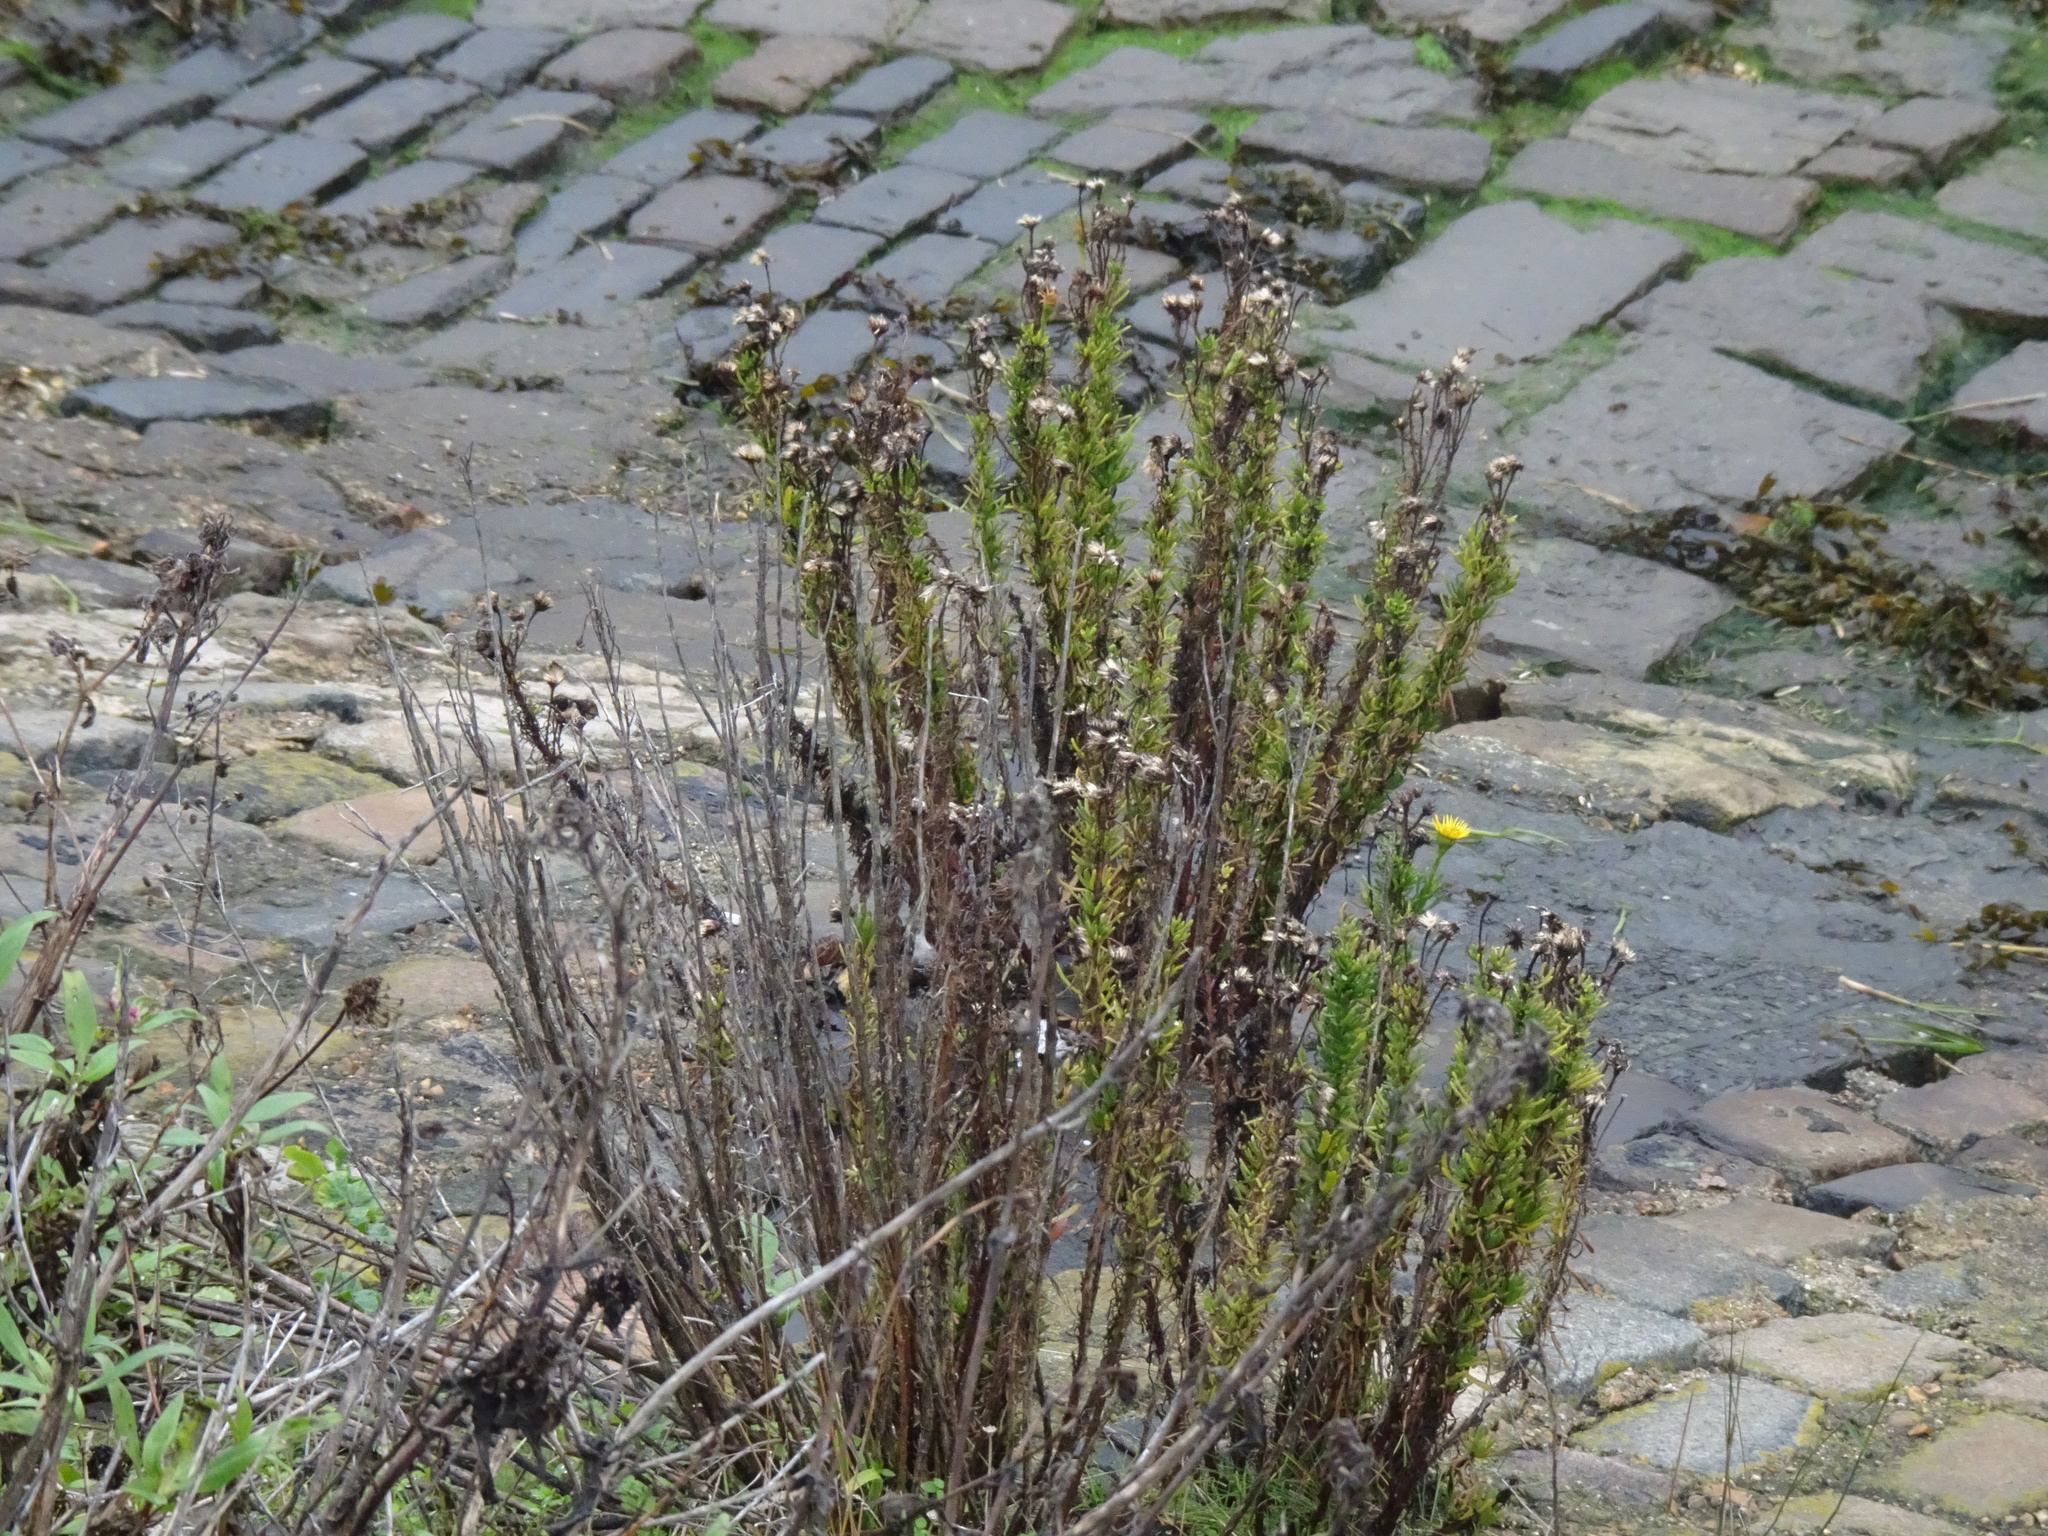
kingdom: Plantae
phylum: Tracheophyta
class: Magnoliopsida
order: Asterales
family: Asteraceae
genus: Limbarda
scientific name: Limbarda crithmoides
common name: Golden samphire
